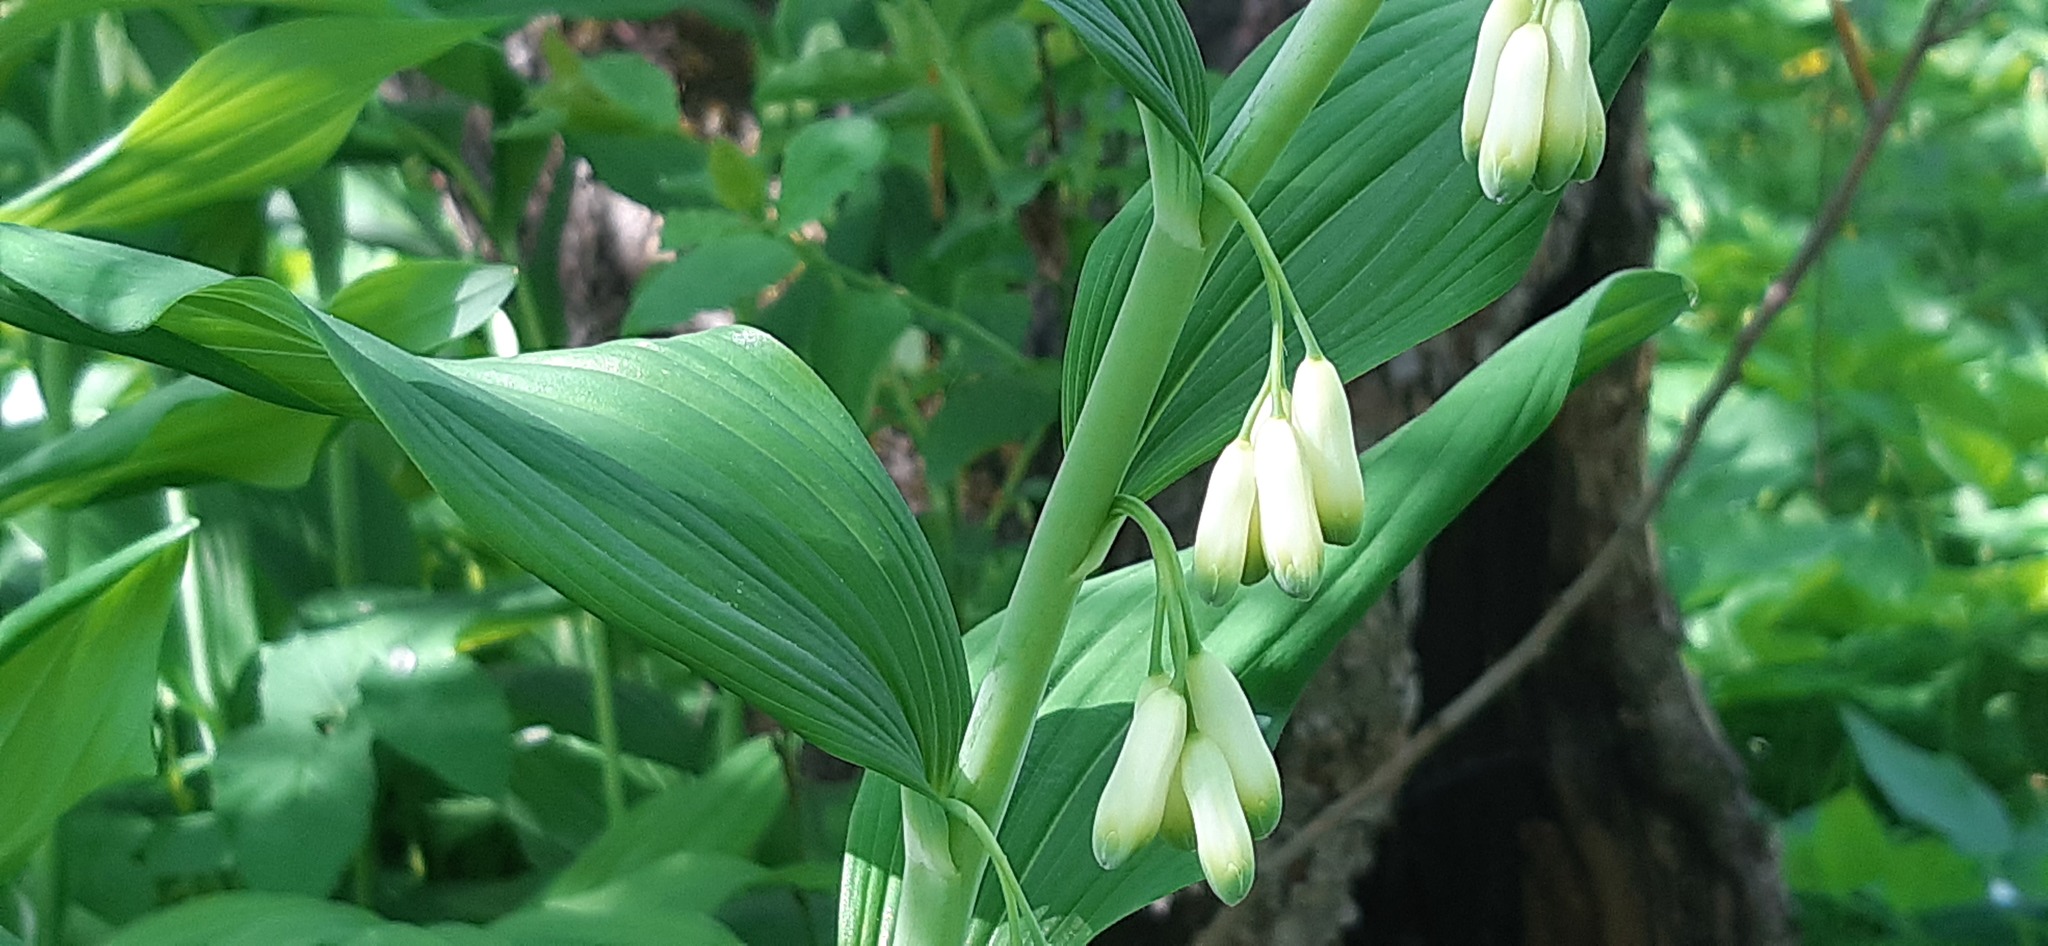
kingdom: Plantae
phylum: Tracheophyta
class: Liliopsida
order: Asparagales
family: Asparagaceae
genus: Polygonatum
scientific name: Polygonatum multiflorum
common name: Solomon's-seal
